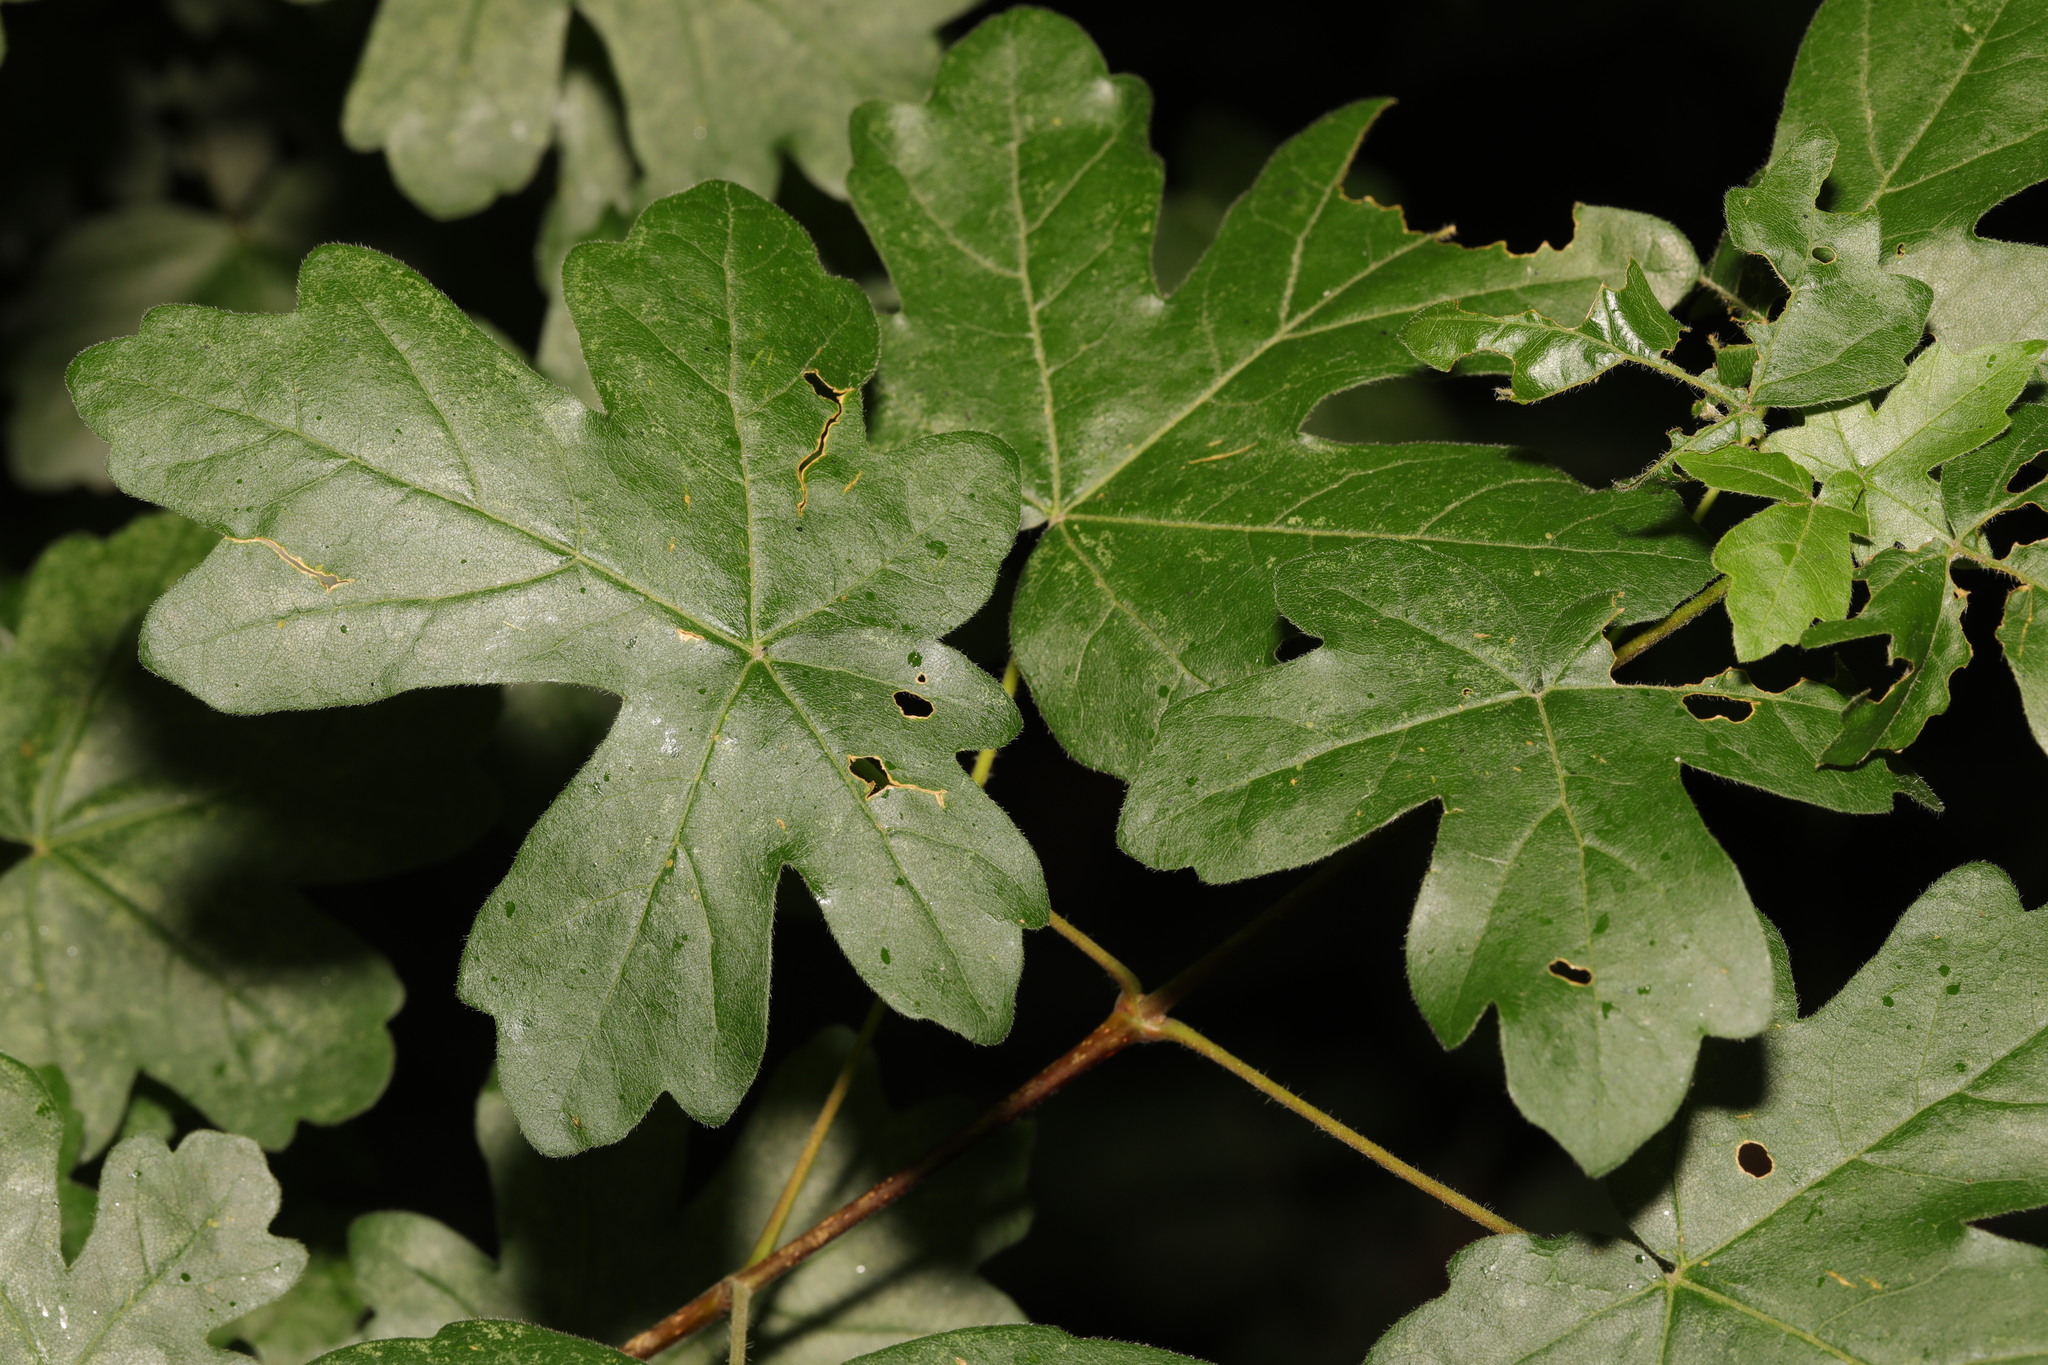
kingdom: Plantae
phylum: Tracheophyta
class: Magnoliopsida
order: Sapindales
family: Sapindaceae
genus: Acer
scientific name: Acer campestre
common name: Field maple
